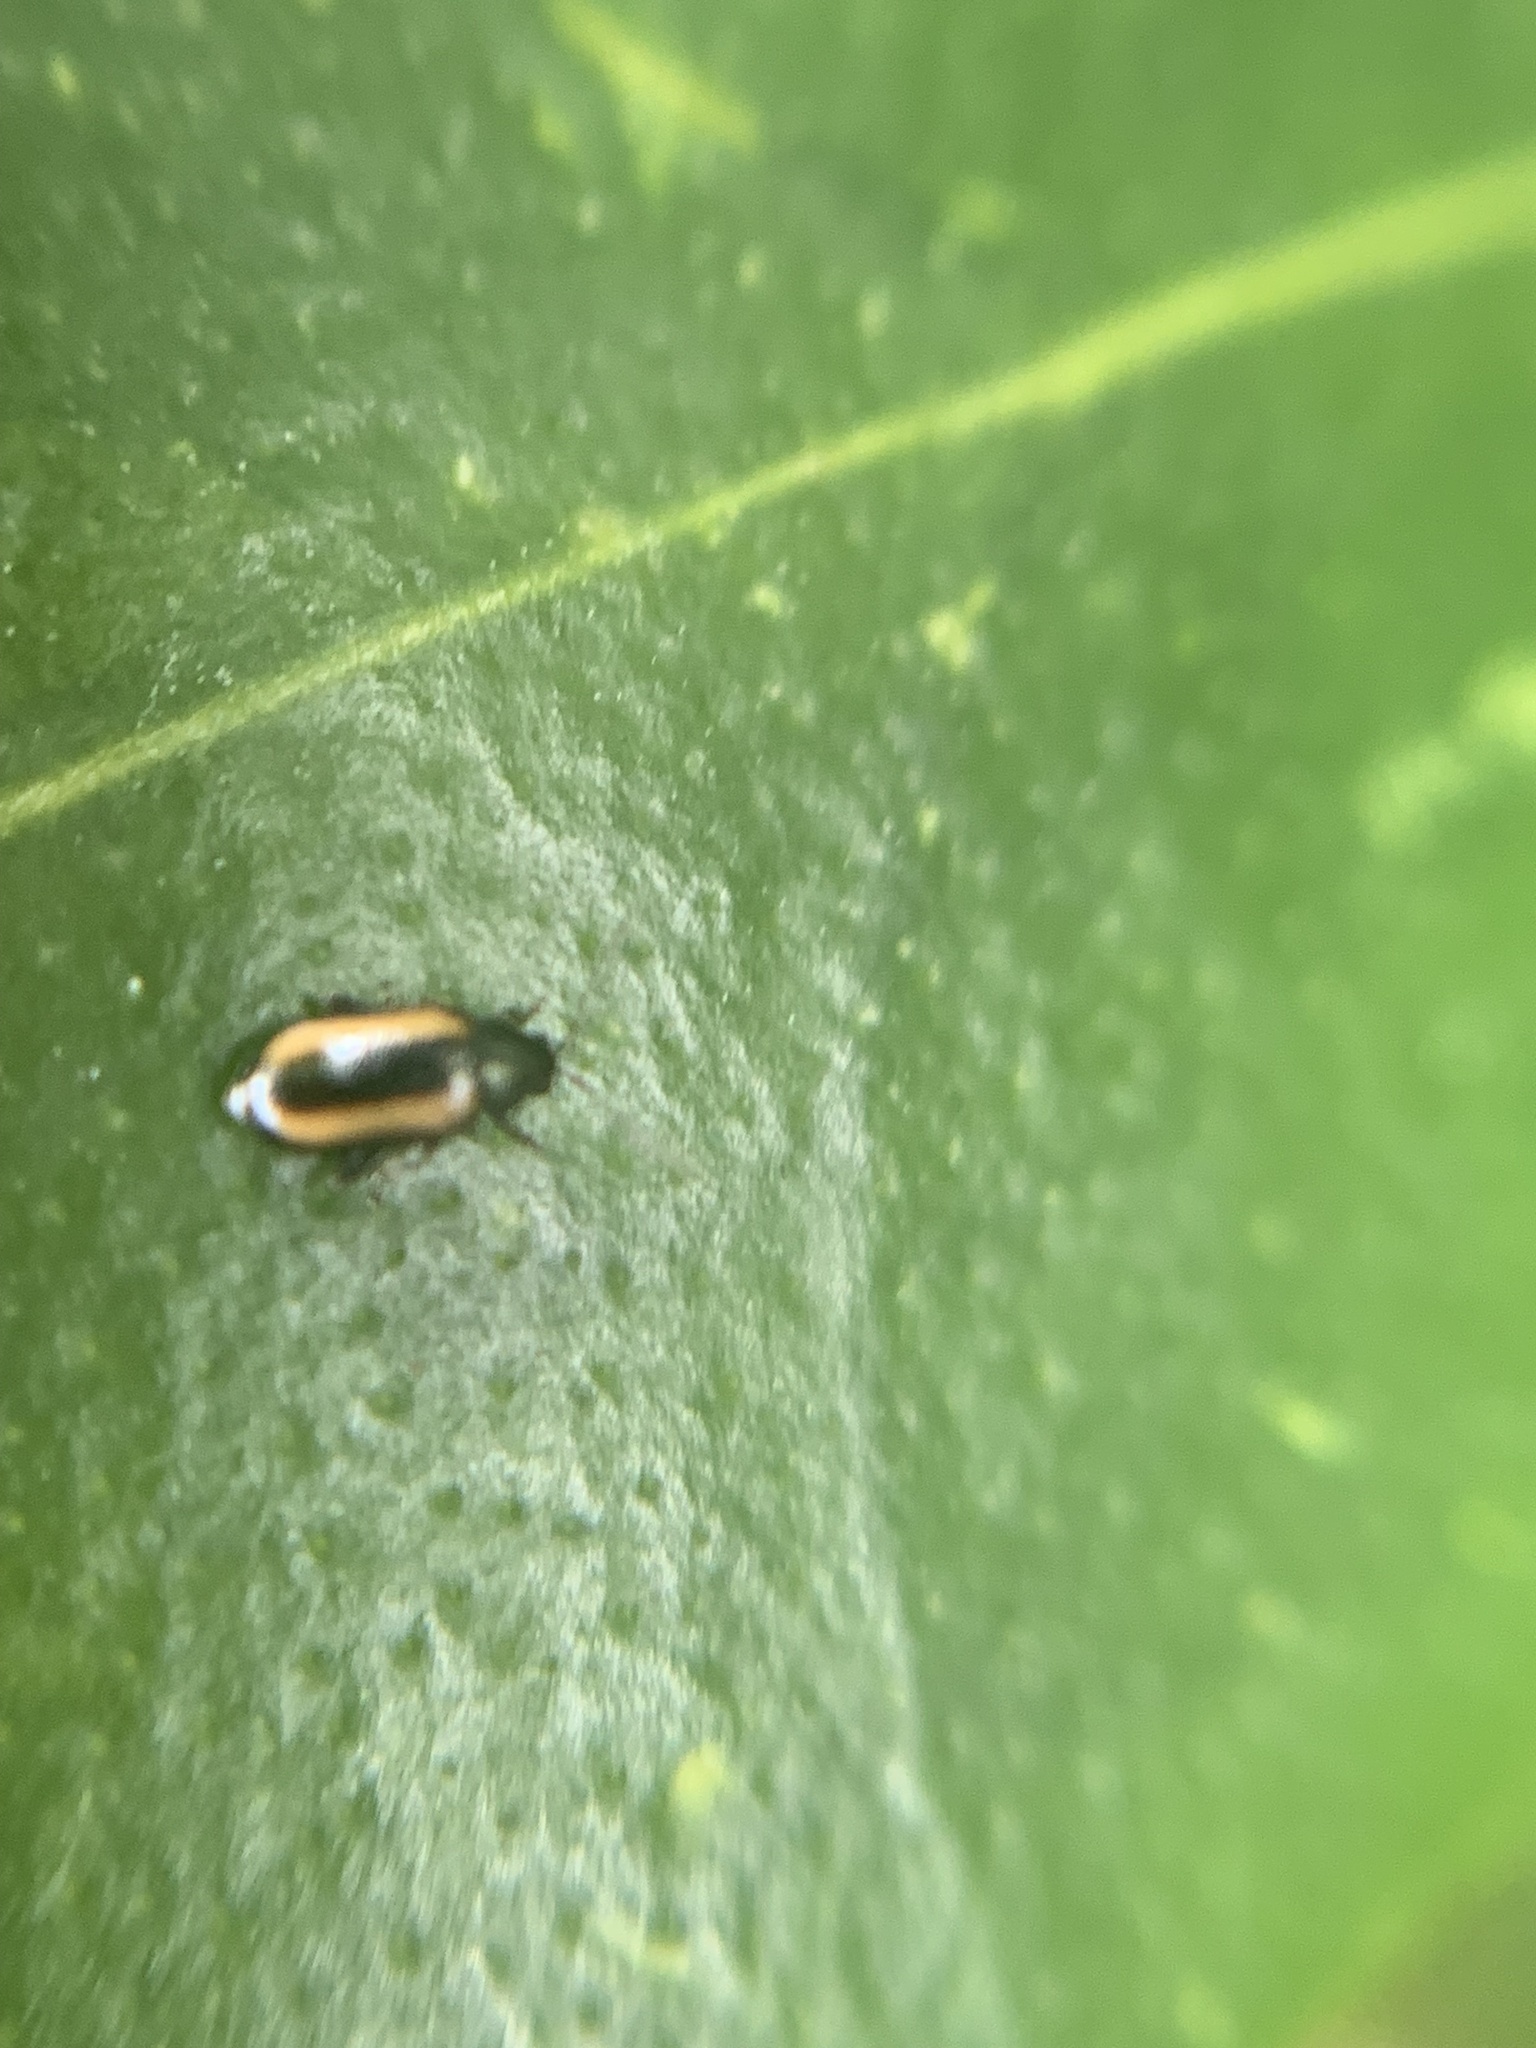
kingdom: Animalia
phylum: Arthropoda
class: Insecta
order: Coleoptera
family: Chrysomelidae
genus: Phyllotreta
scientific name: Phyllotreta vittula
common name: Barley flea beetle
